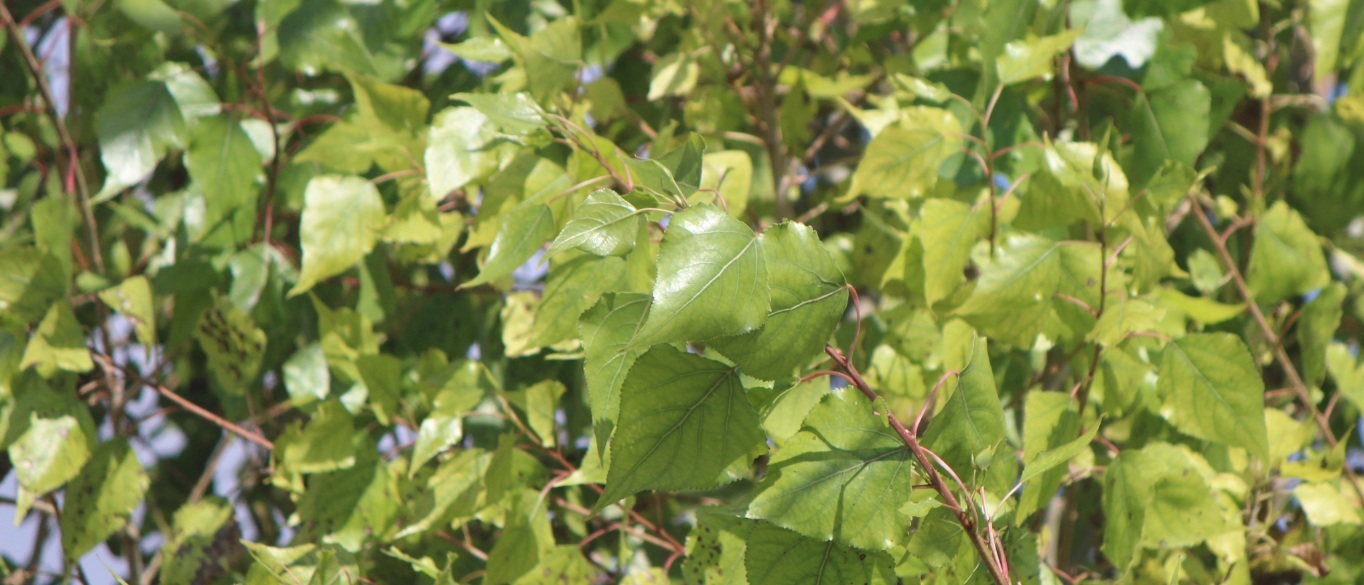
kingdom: Plantae
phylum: Tracheophyta
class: Magnoliopsida
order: Malpighiales
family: Salicaceae
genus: Populus
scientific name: Populus canadensis
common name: Carolina poplar
